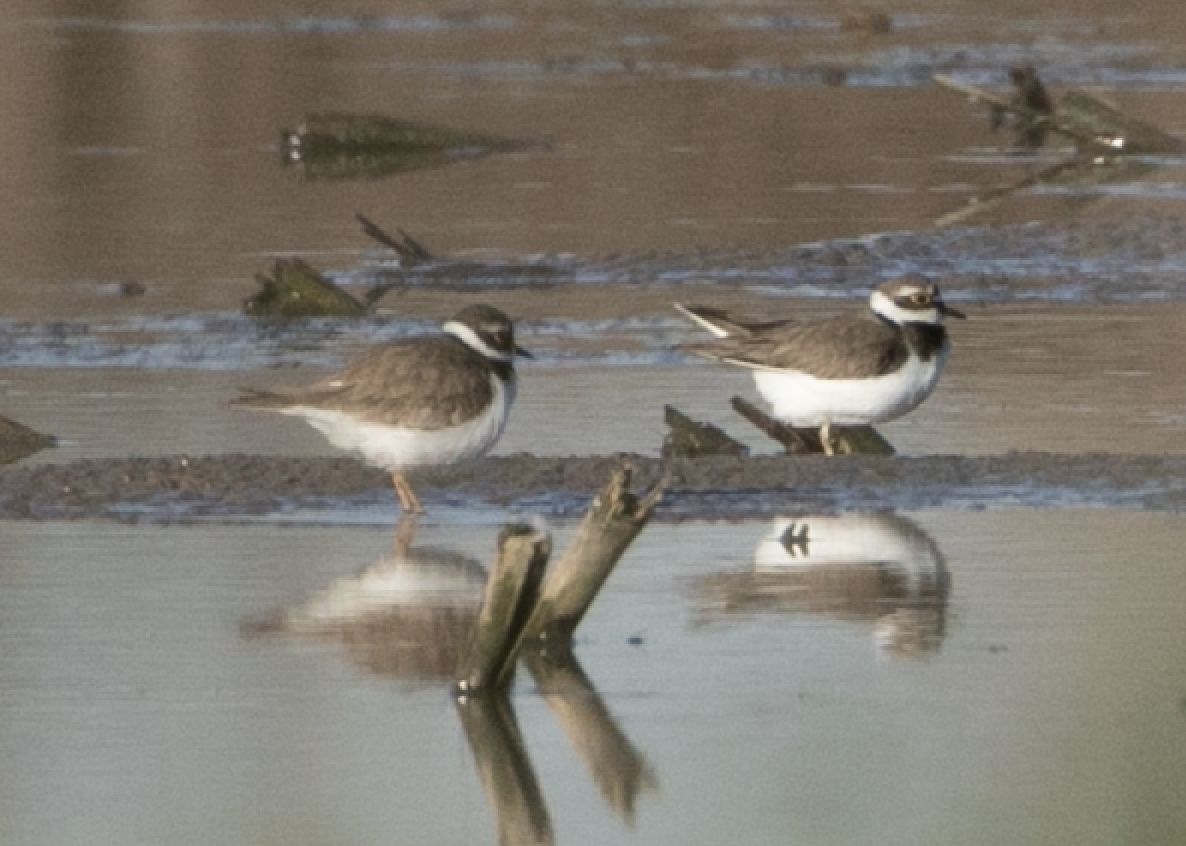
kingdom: Animalia
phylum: Chordata
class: Aves
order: Charadriiformes
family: Charadriidae
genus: Charadrius
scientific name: Charadrius dubius
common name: Little ringed plover
